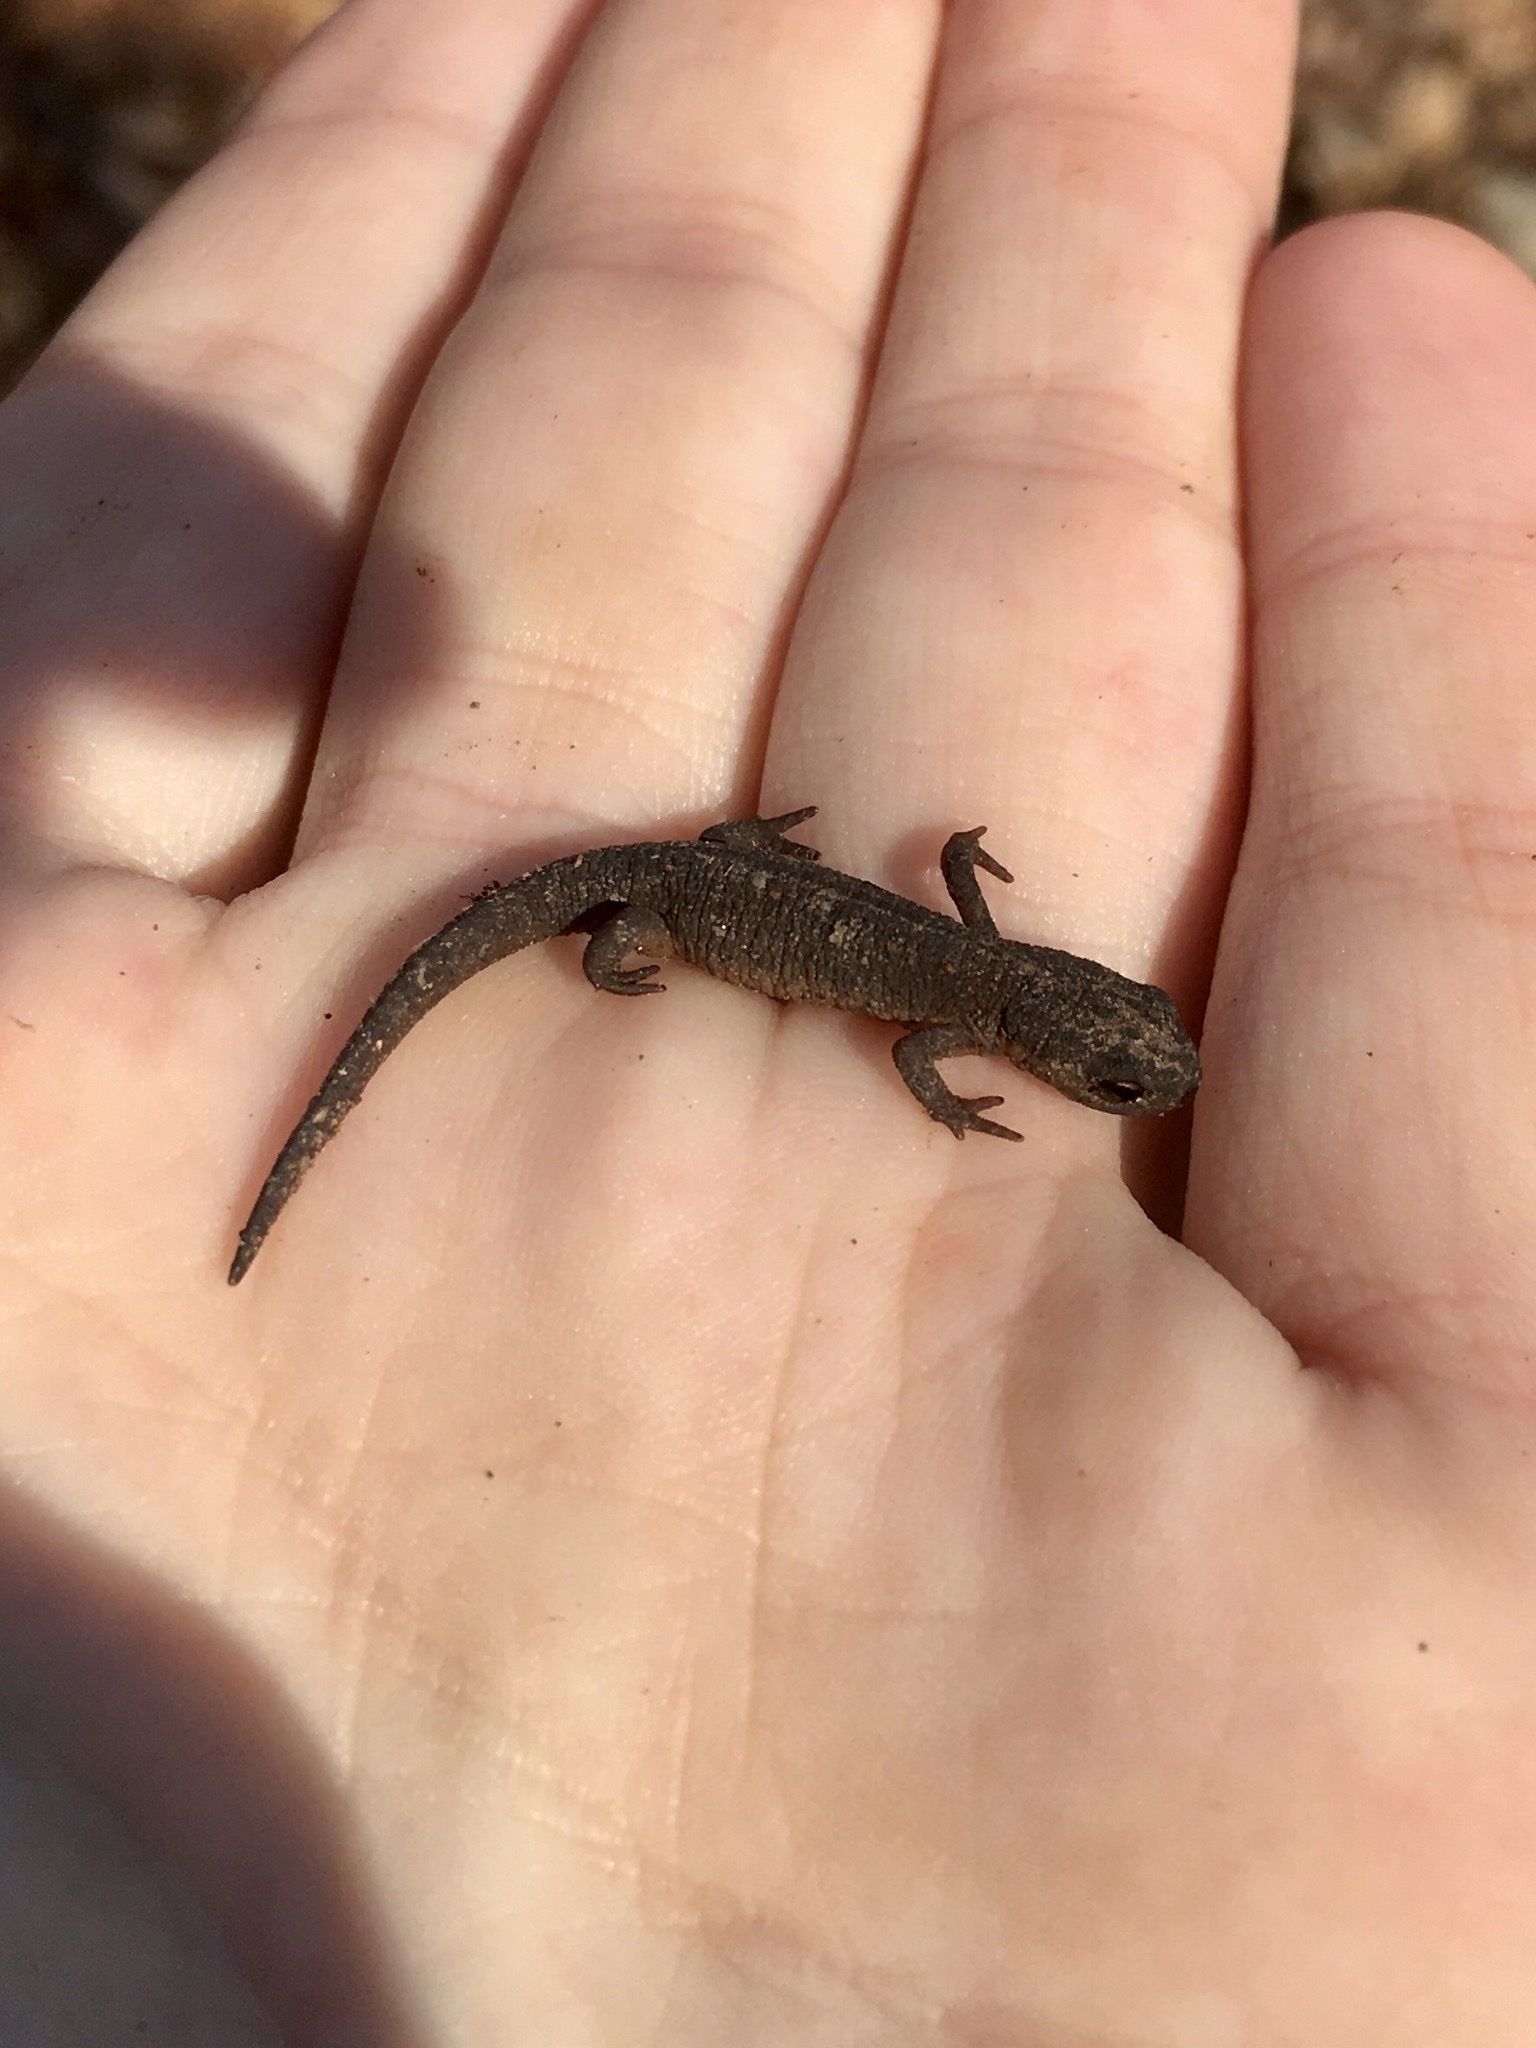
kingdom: Animalia
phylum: Chordata
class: Amphibia
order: Caudata
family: Salamandridae
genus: Notophthalmus
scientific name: Notophthalmus viridescens
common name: Eastern newt
